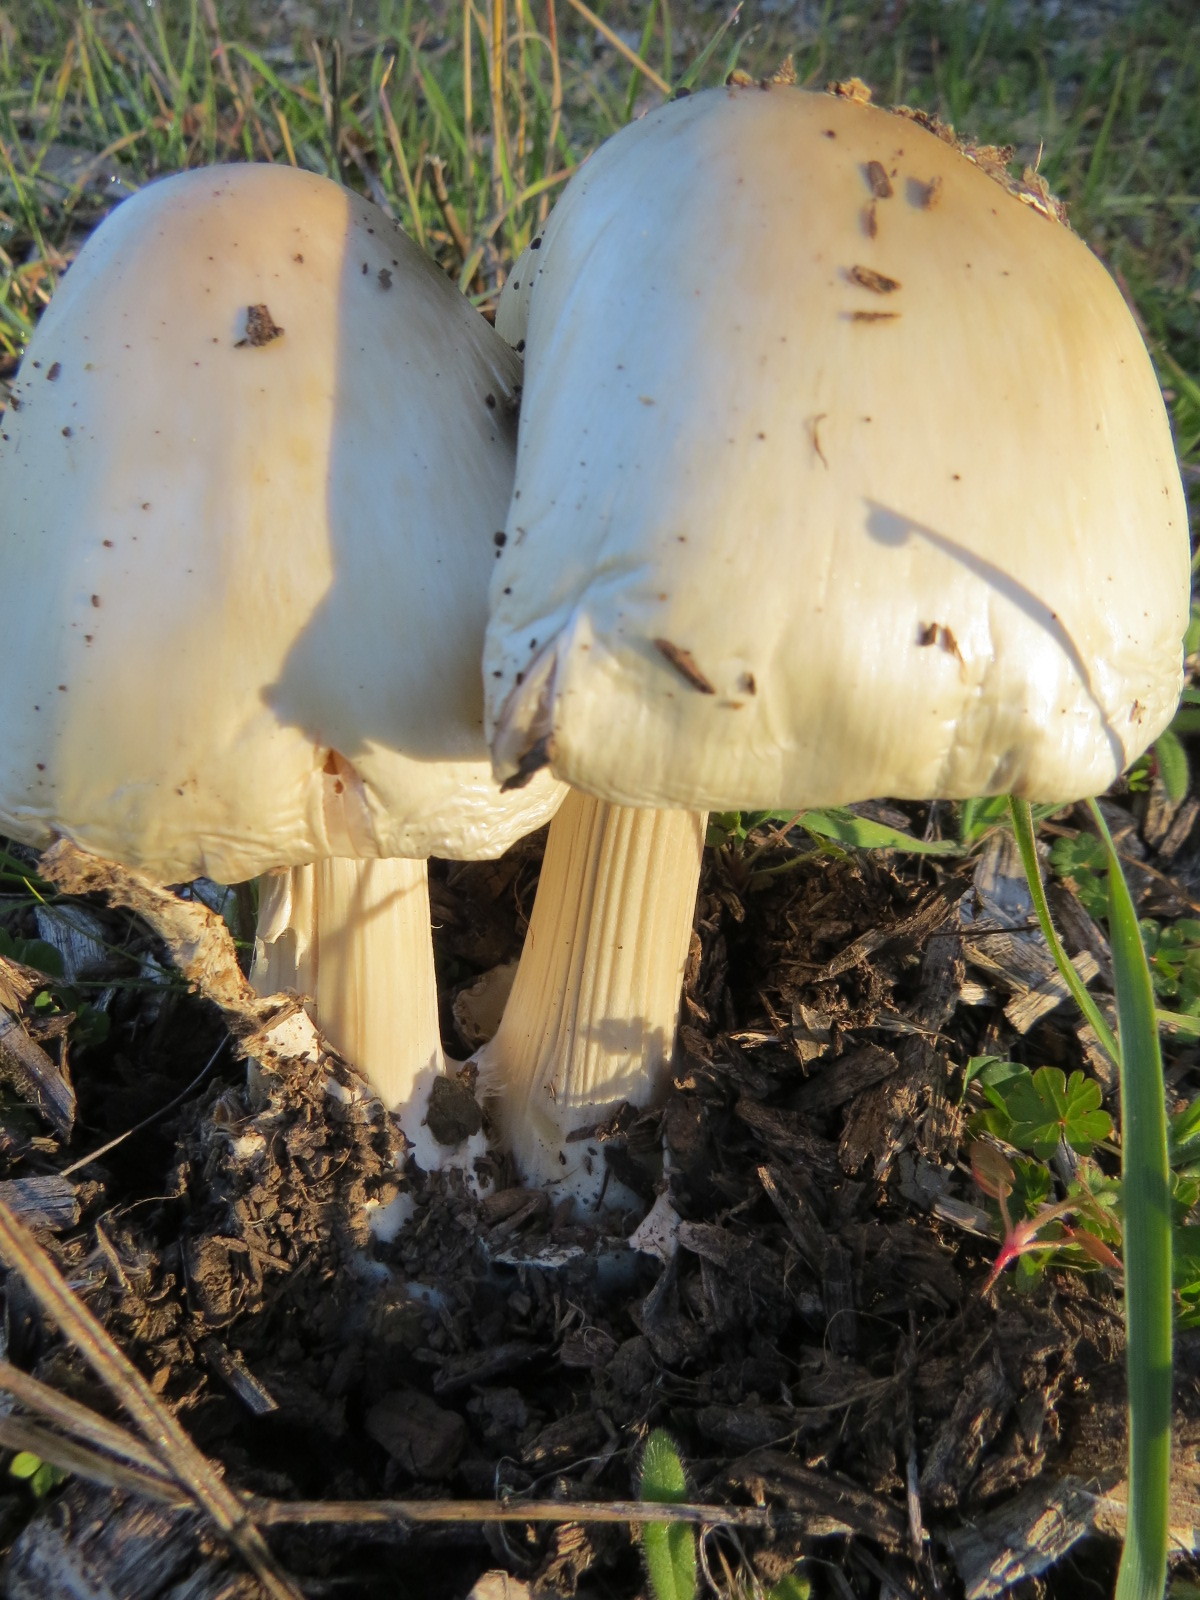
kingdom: Fungi
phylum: Basidiomycota
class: Agaricomycetes
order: Agaricales
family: Pluteaceae
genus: Volvopluteus
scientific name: Volvopluteus gloiocephalus
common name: Stubble rosegill
